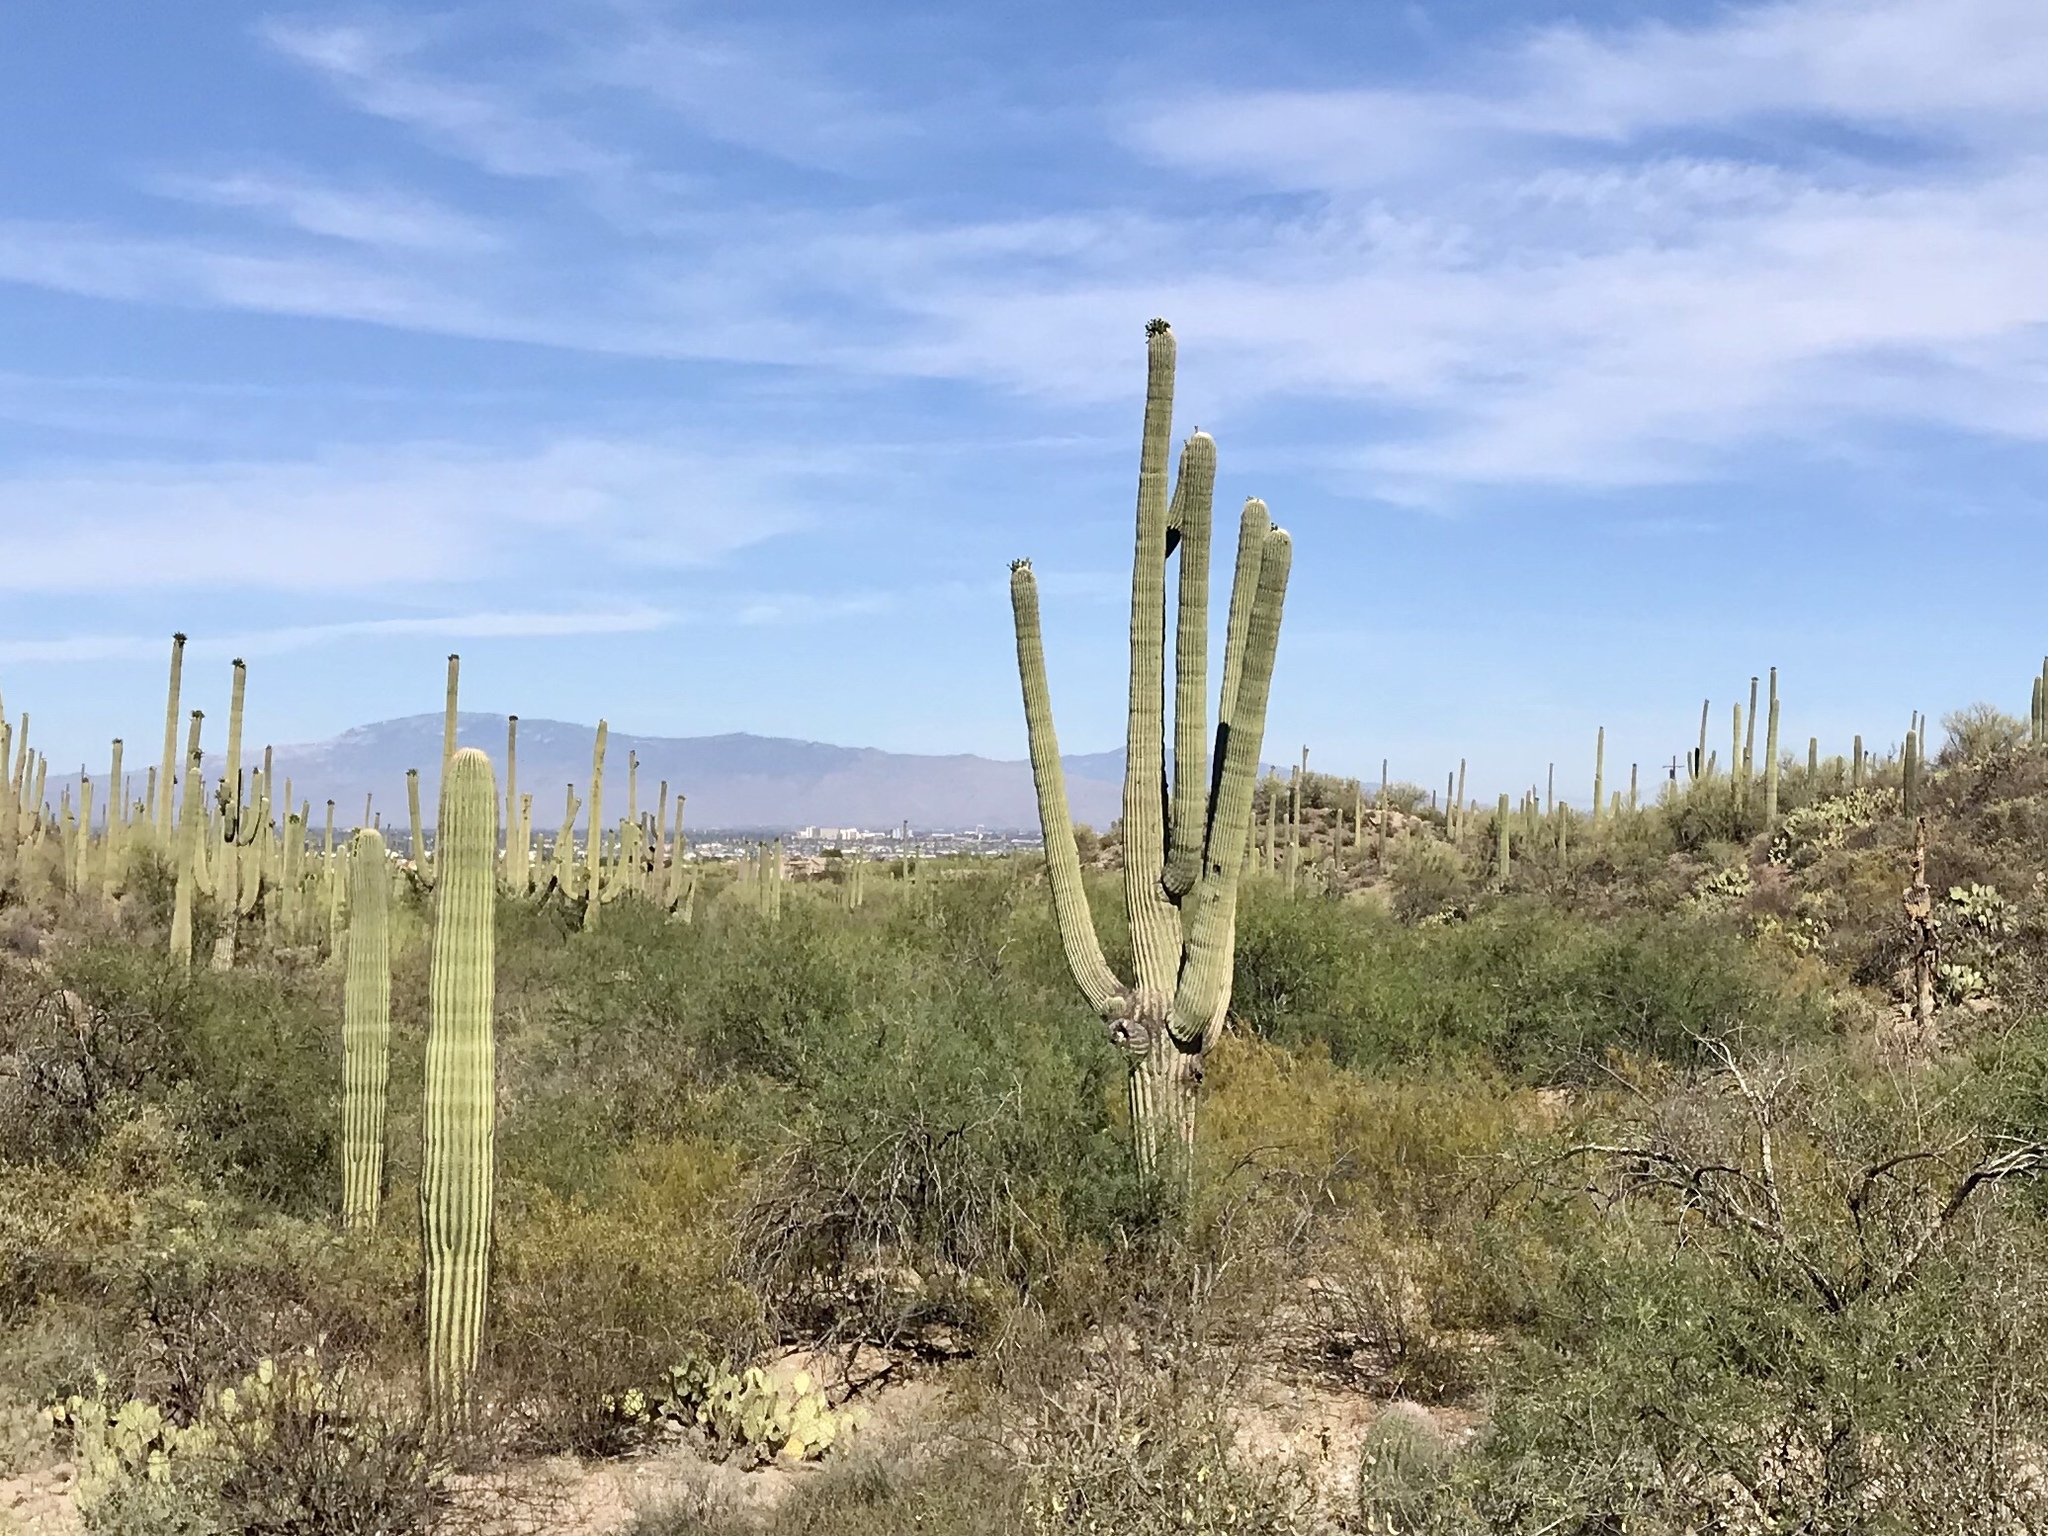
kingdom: Plantae
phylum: Tracheophyta
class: Magnoliopsida
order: Caryophyllales
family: Cactaceae
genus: Carnegiea
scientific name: Carnegiea gigantea
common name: Saguaro
